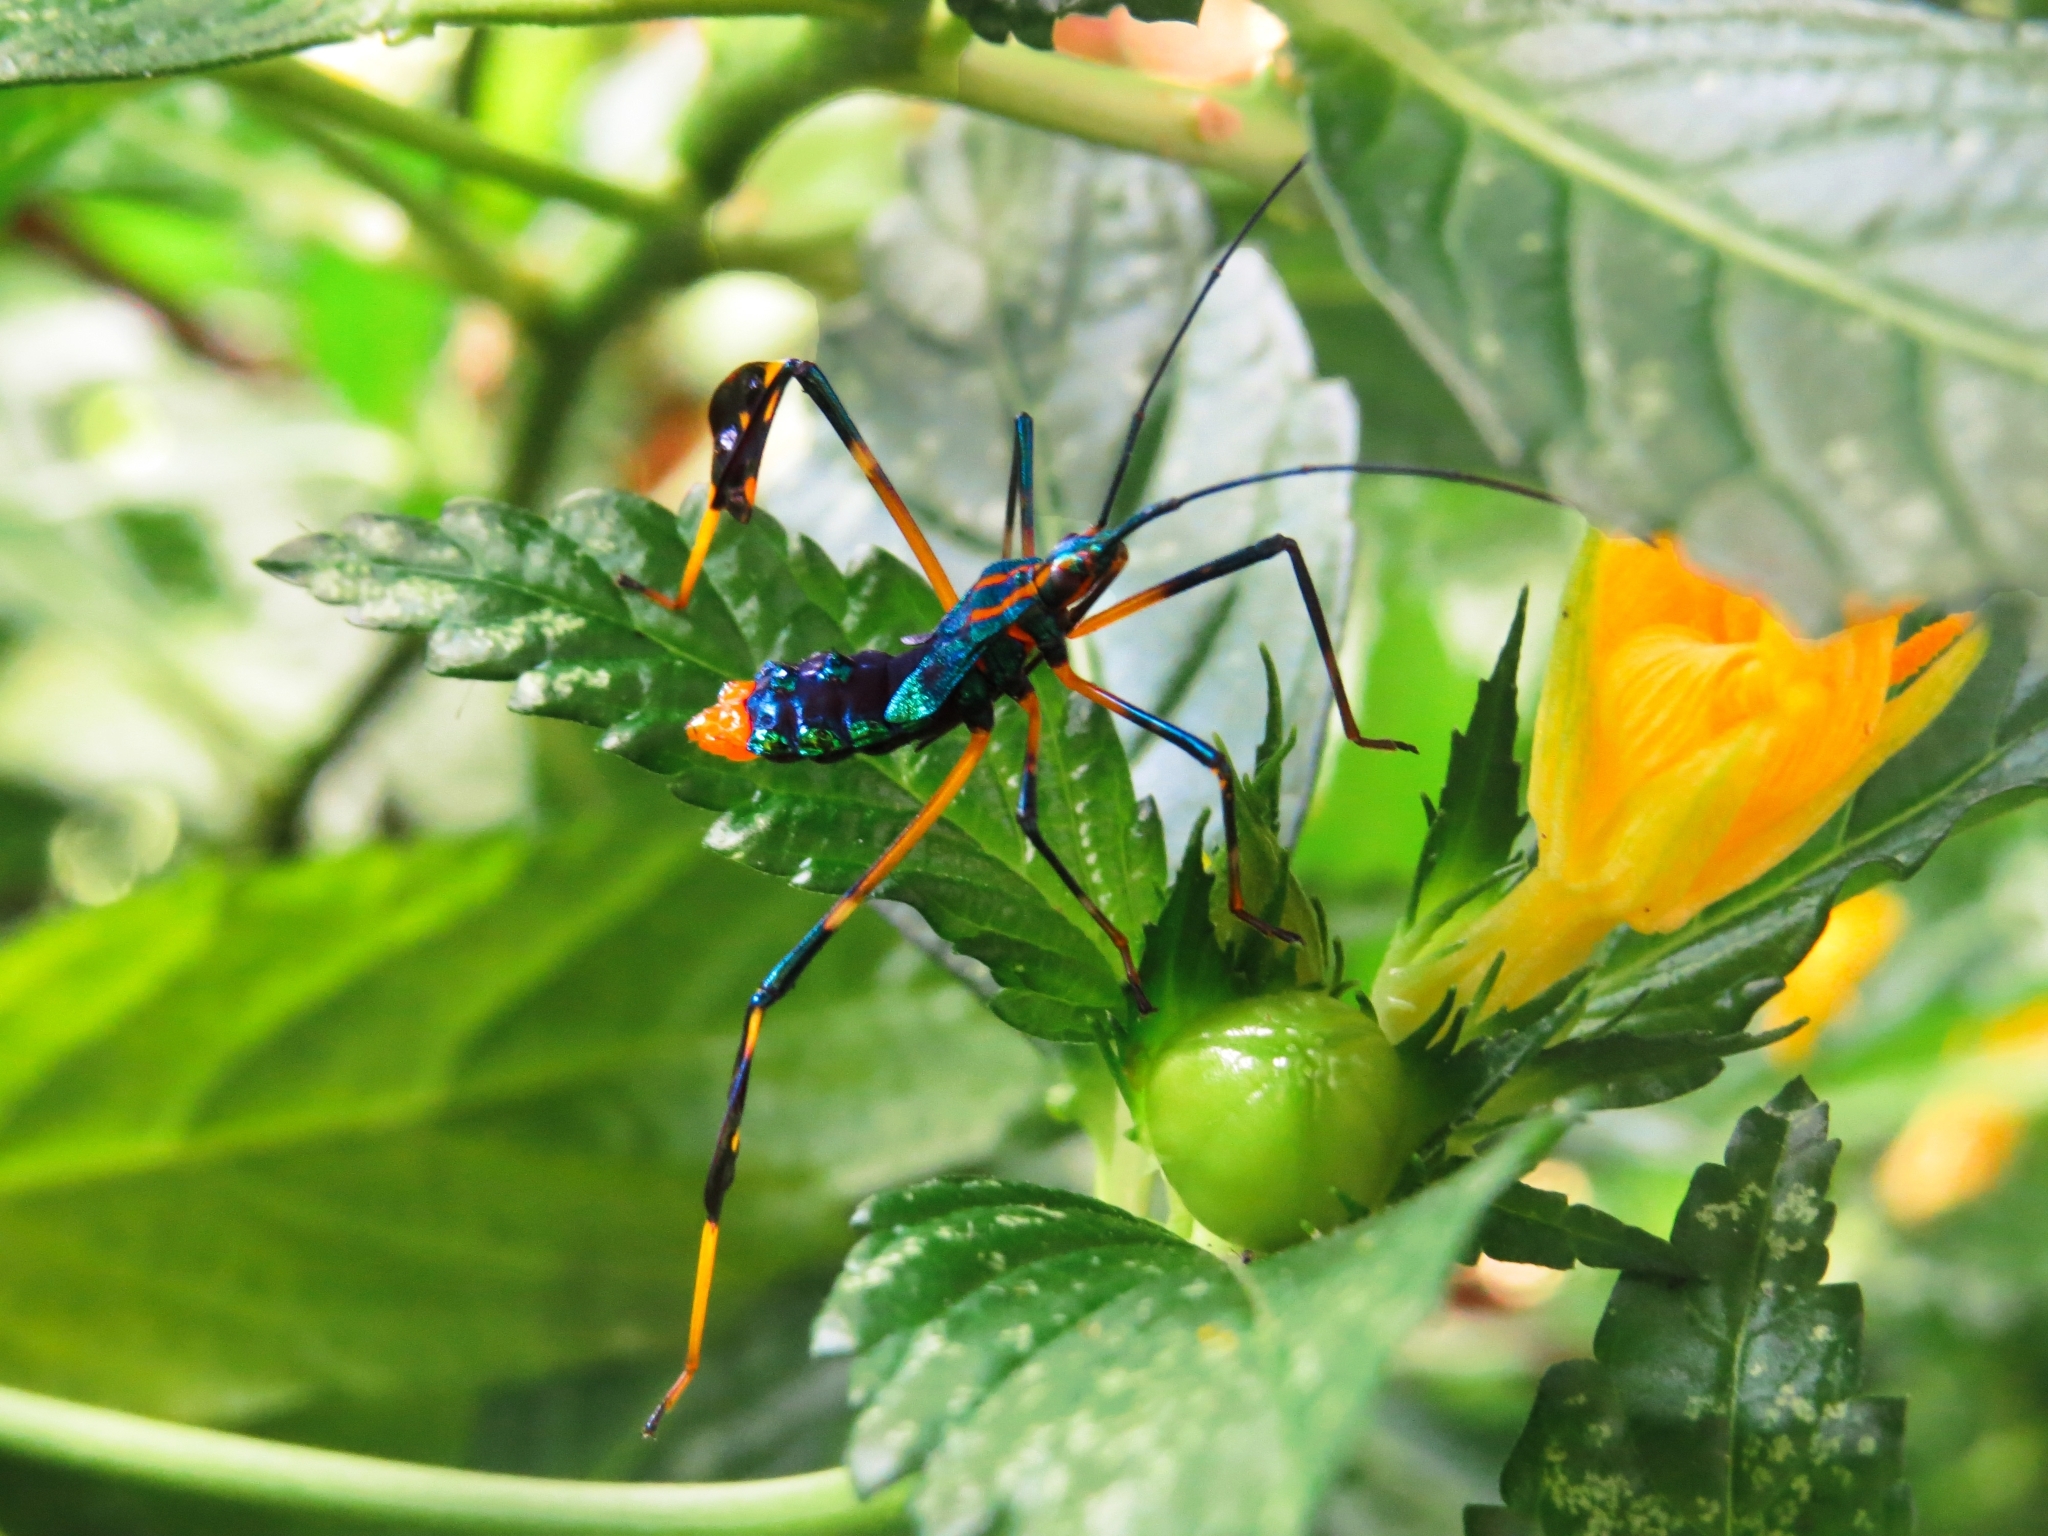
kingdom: Animalia
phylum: Arthropoda
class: Insecta
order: Hemiptera
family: Coreidae
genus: Diactor
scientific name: Diactor bilineatus
